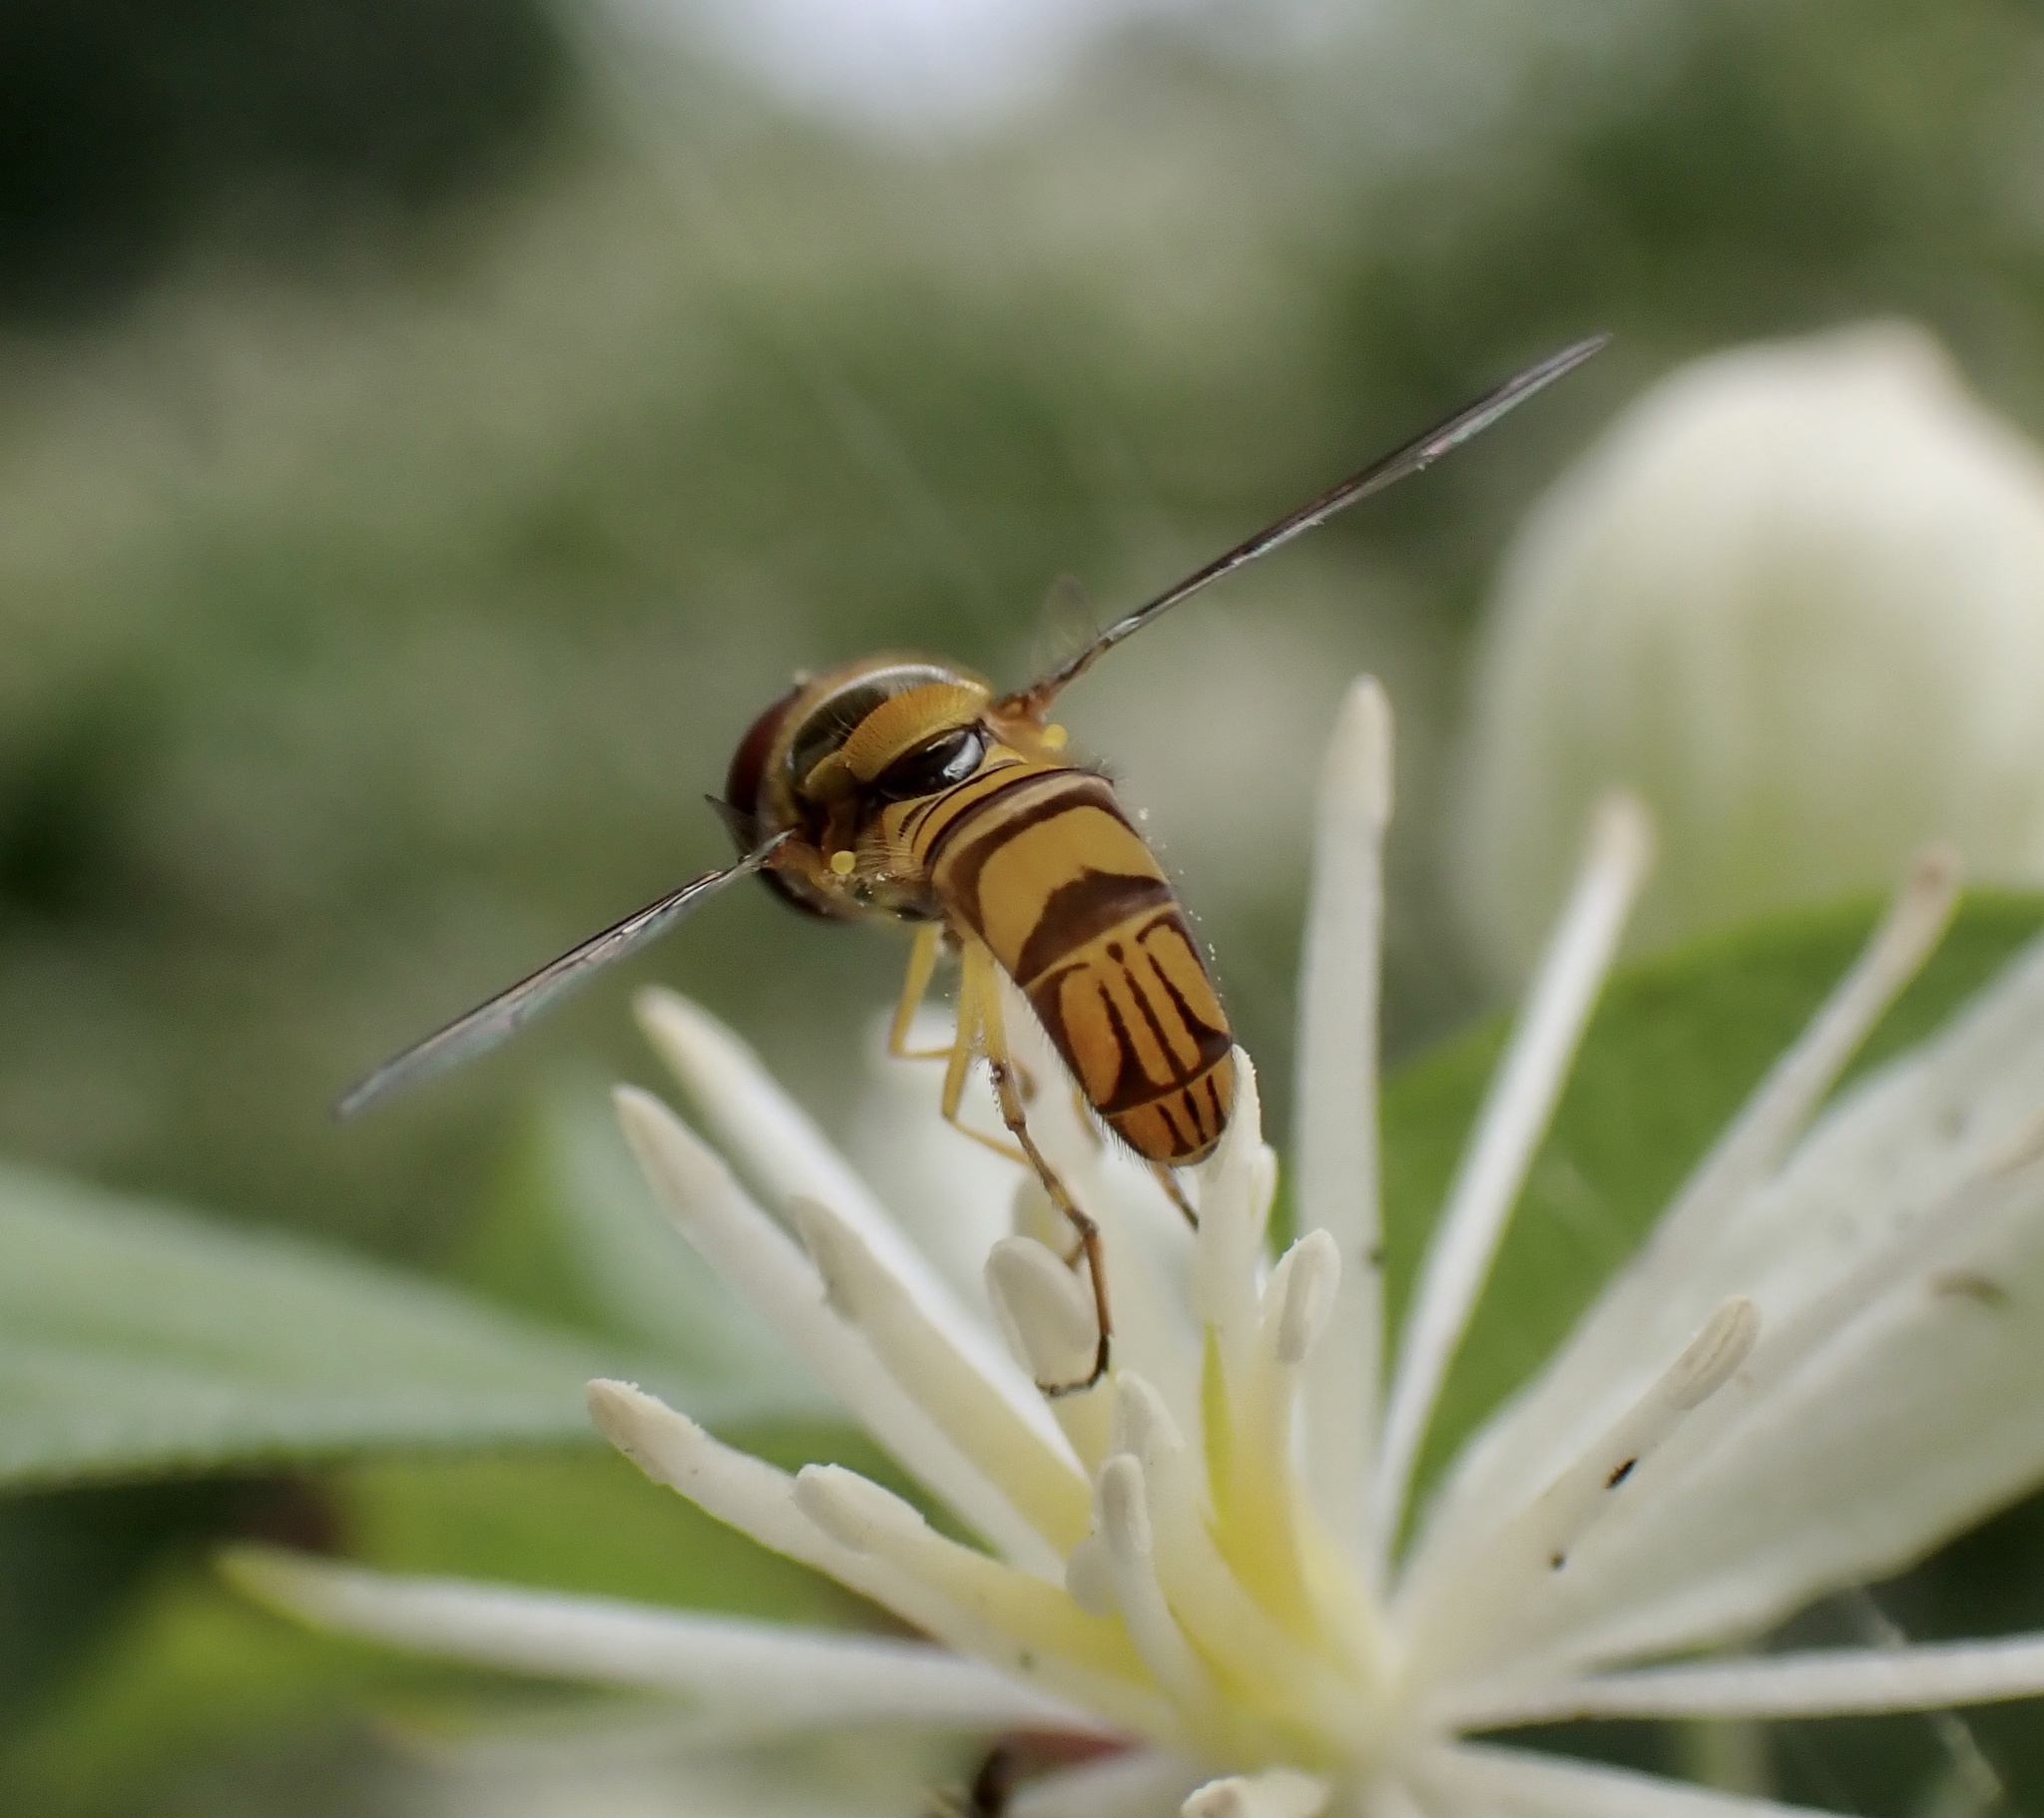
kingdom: Animalia
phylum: Arthropoda
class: Insecta
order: Diptera
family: Syrphidae
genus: Allograpta
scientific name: Allograpta obliqua
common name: Common oblique syrphid
